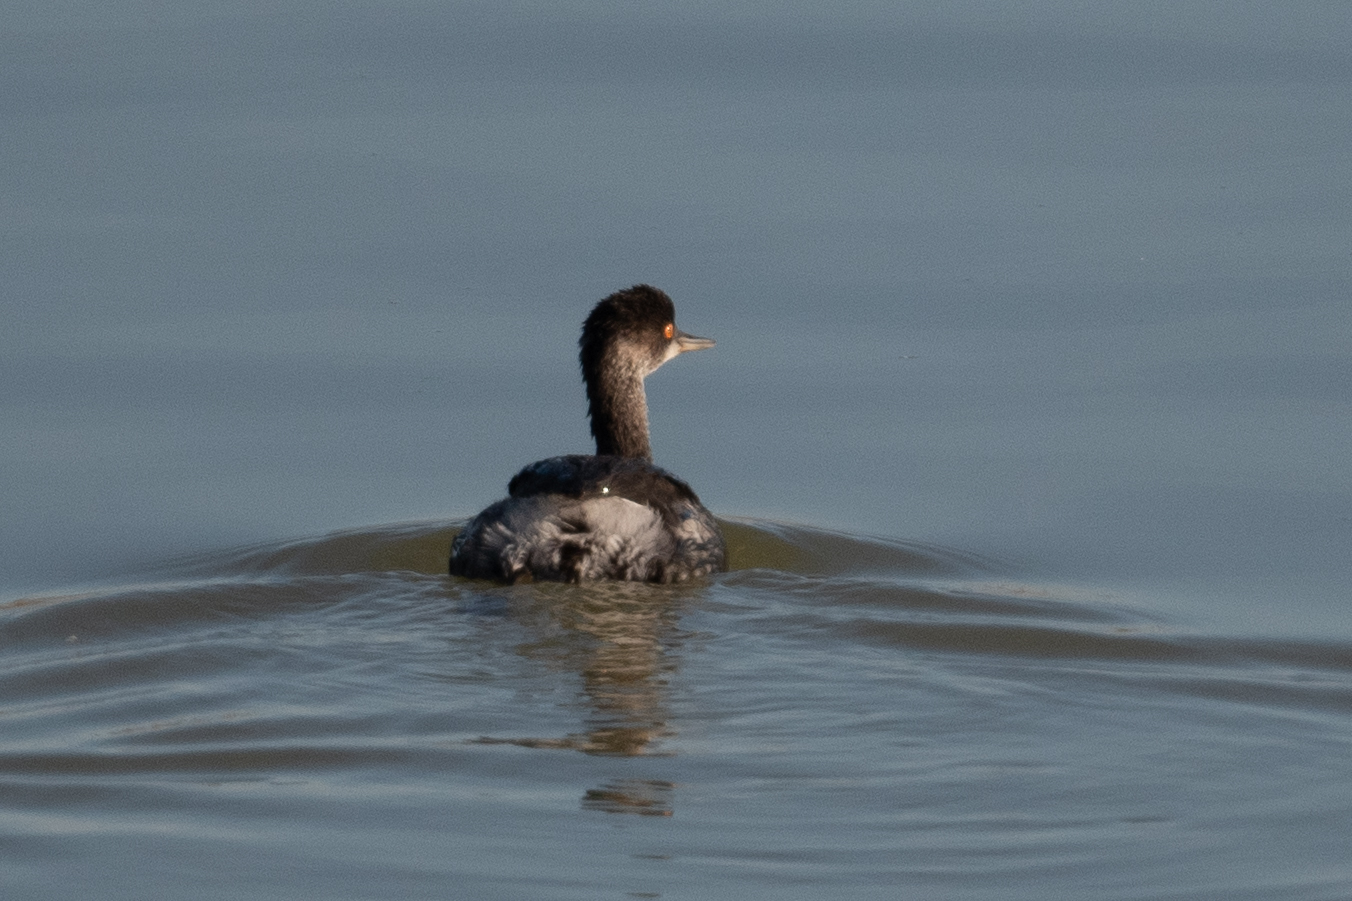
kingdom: Animalia
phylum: Chordata
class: Aves
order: Podicipediformes
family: Podicipedidae
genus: Podiceps
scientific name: Podiceps nigricollis
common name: Black-necked grebe
